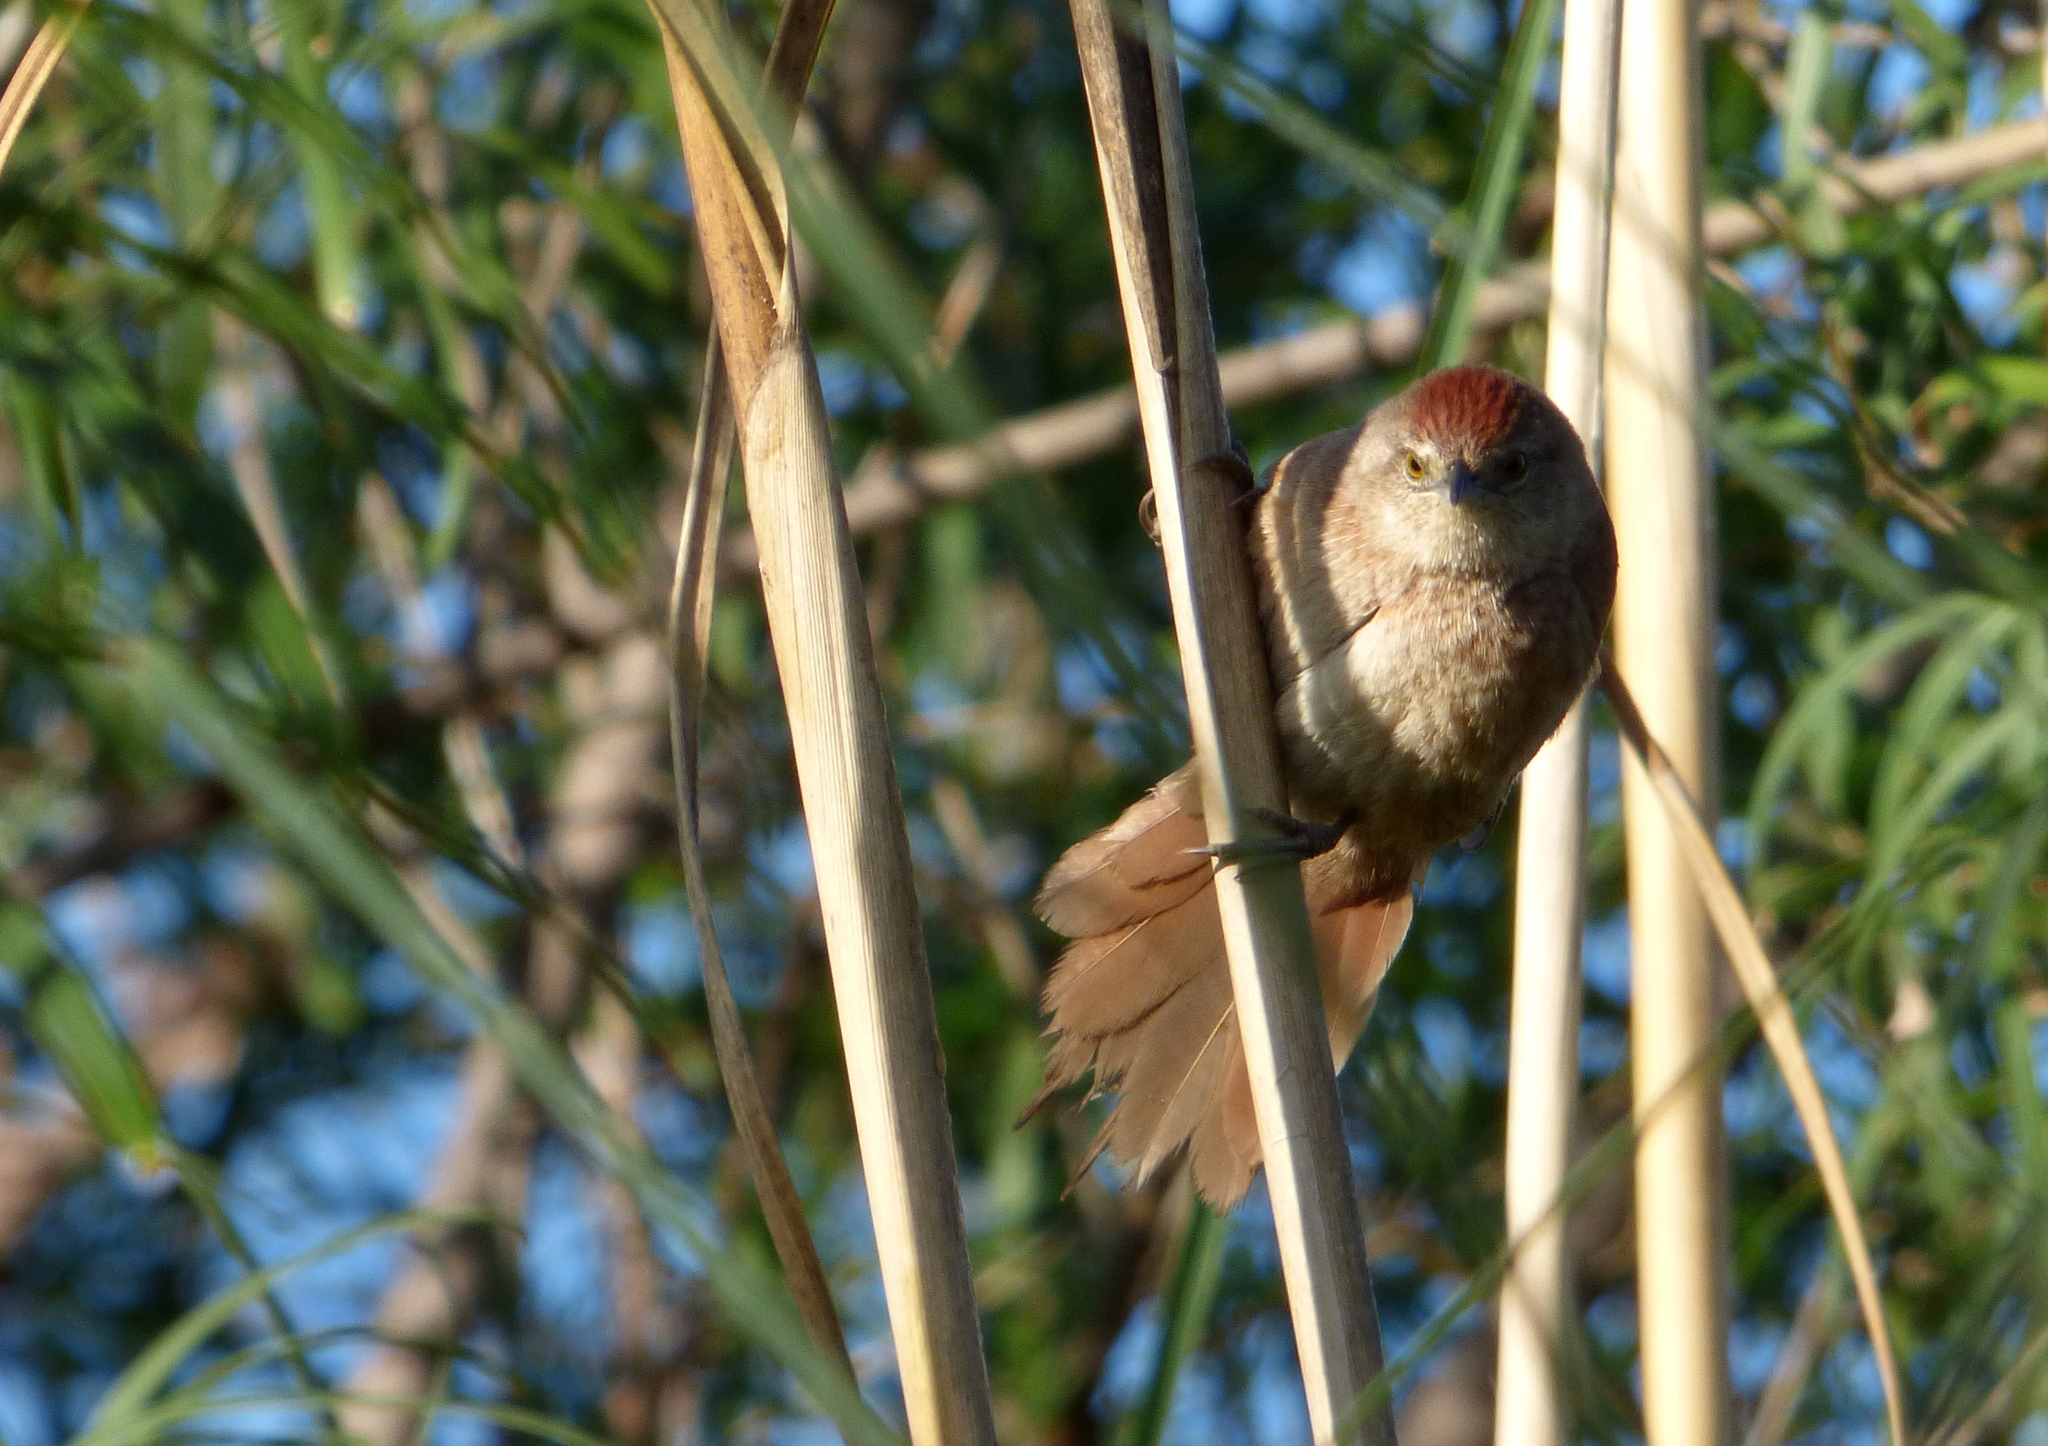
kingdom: Animalia
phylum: Chordata
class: Aves
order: Passeriformes
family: Furnariidae
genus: Phacellodomus
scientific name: Phacellodomus striaticollis
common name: Freckle-breasted thornbird
